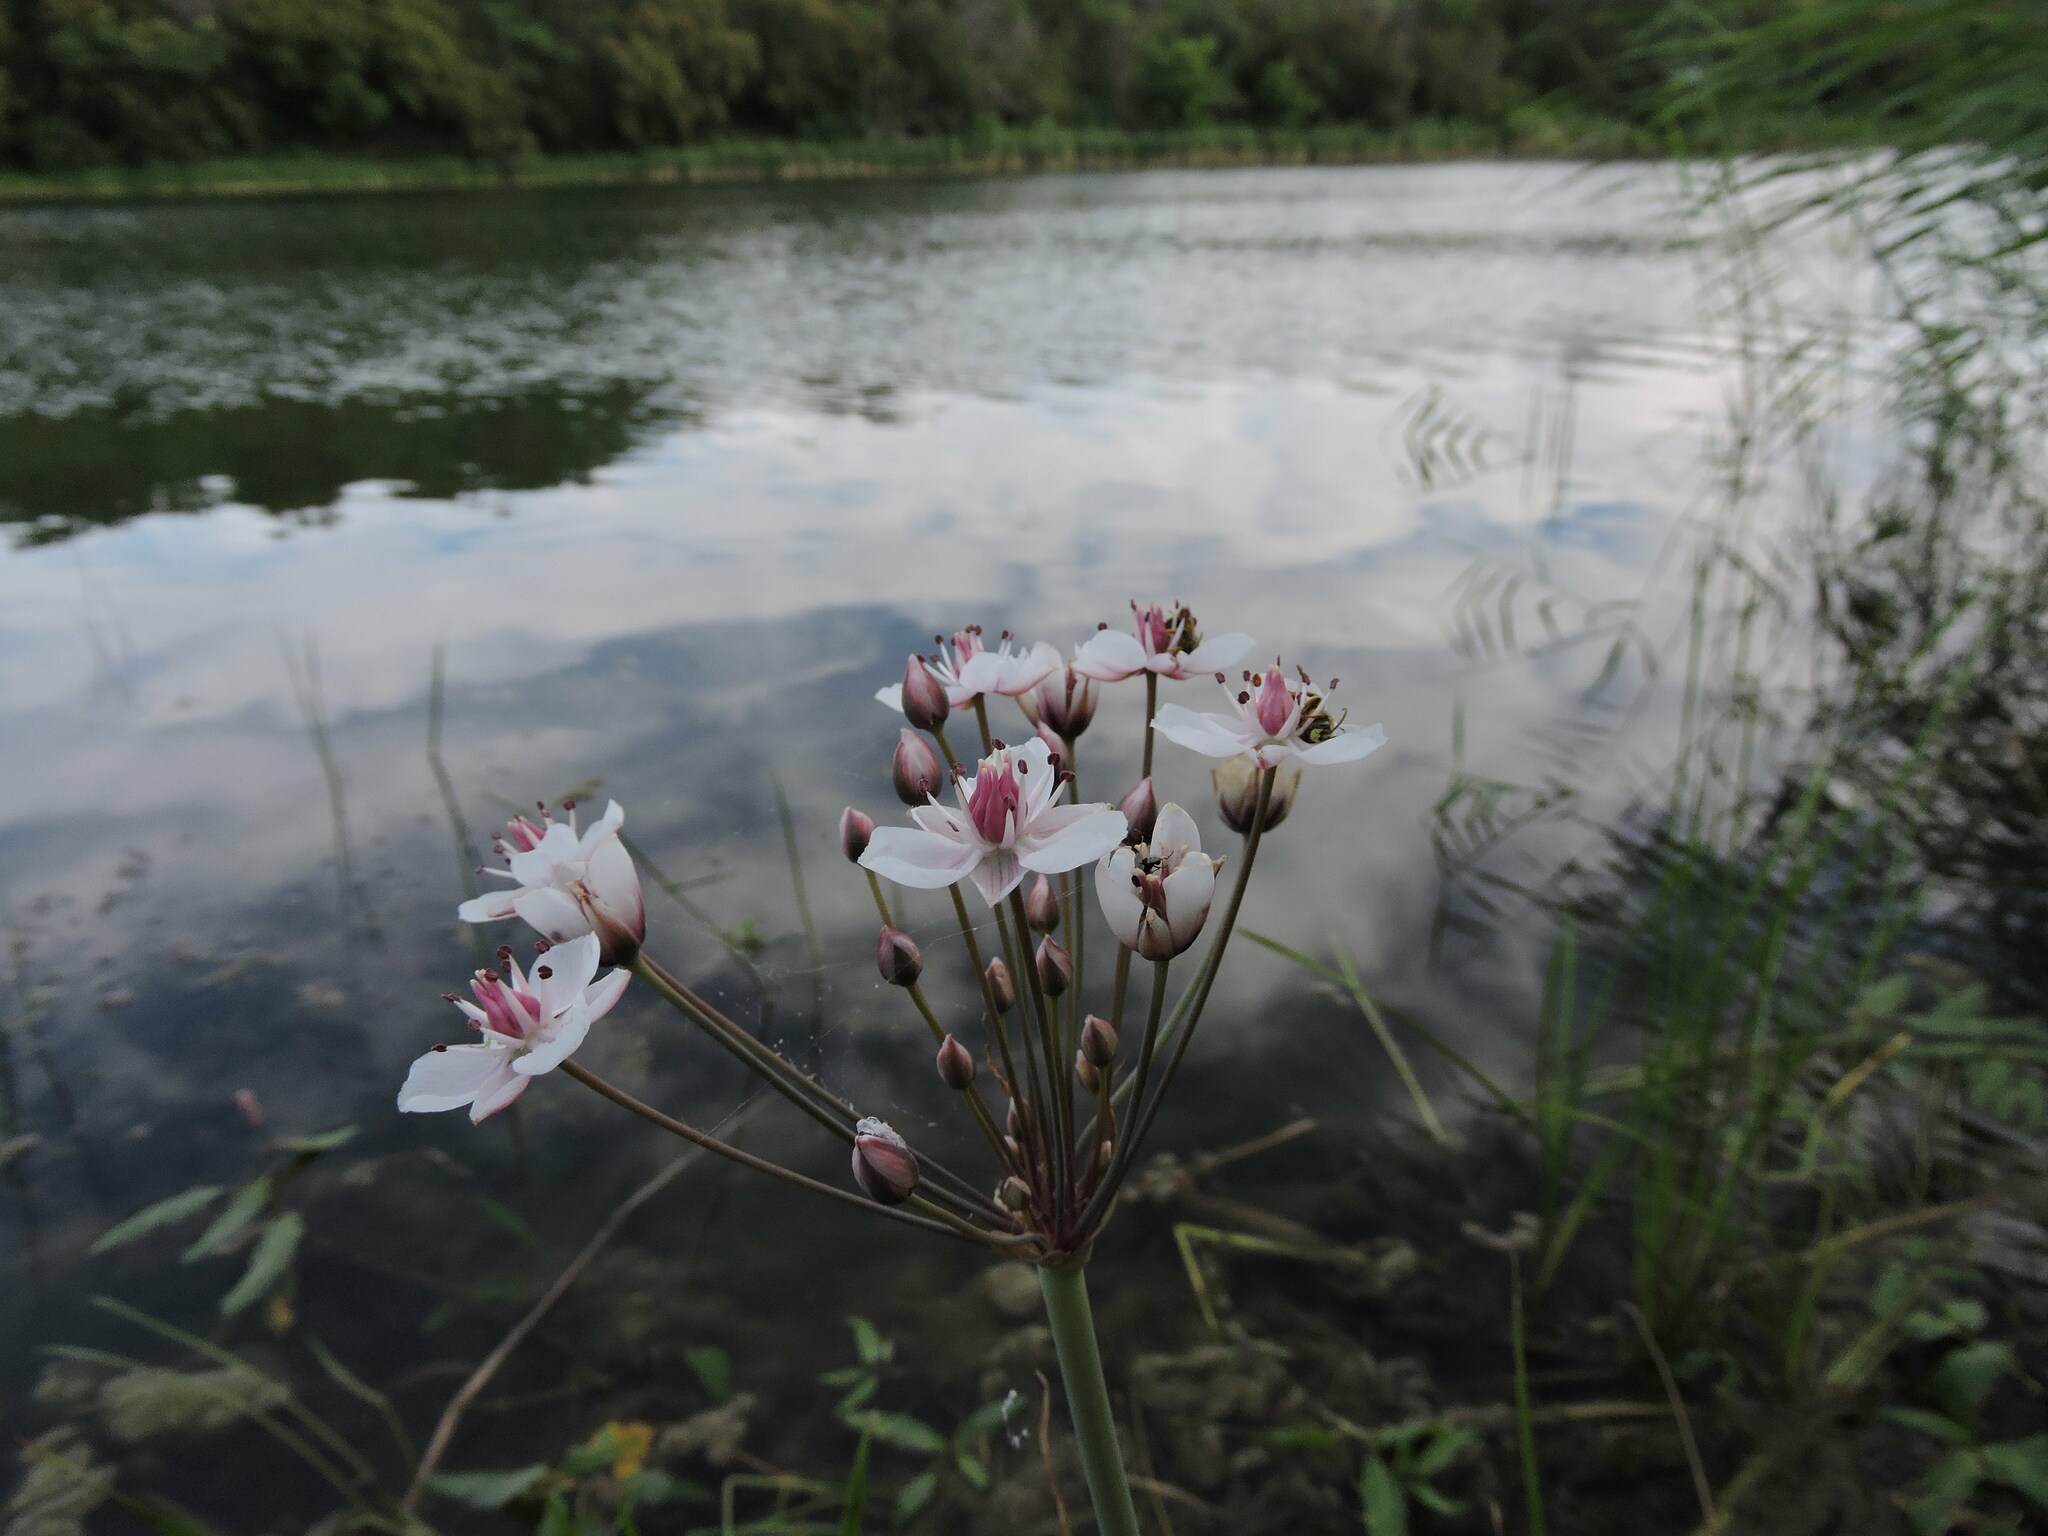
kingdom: Plantae
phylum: Tracheophyta
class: Liliopsida
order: Alismatales
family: Butomaceae
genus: Butomus
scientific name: Butomus umbellatus
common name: Flowering-rush
